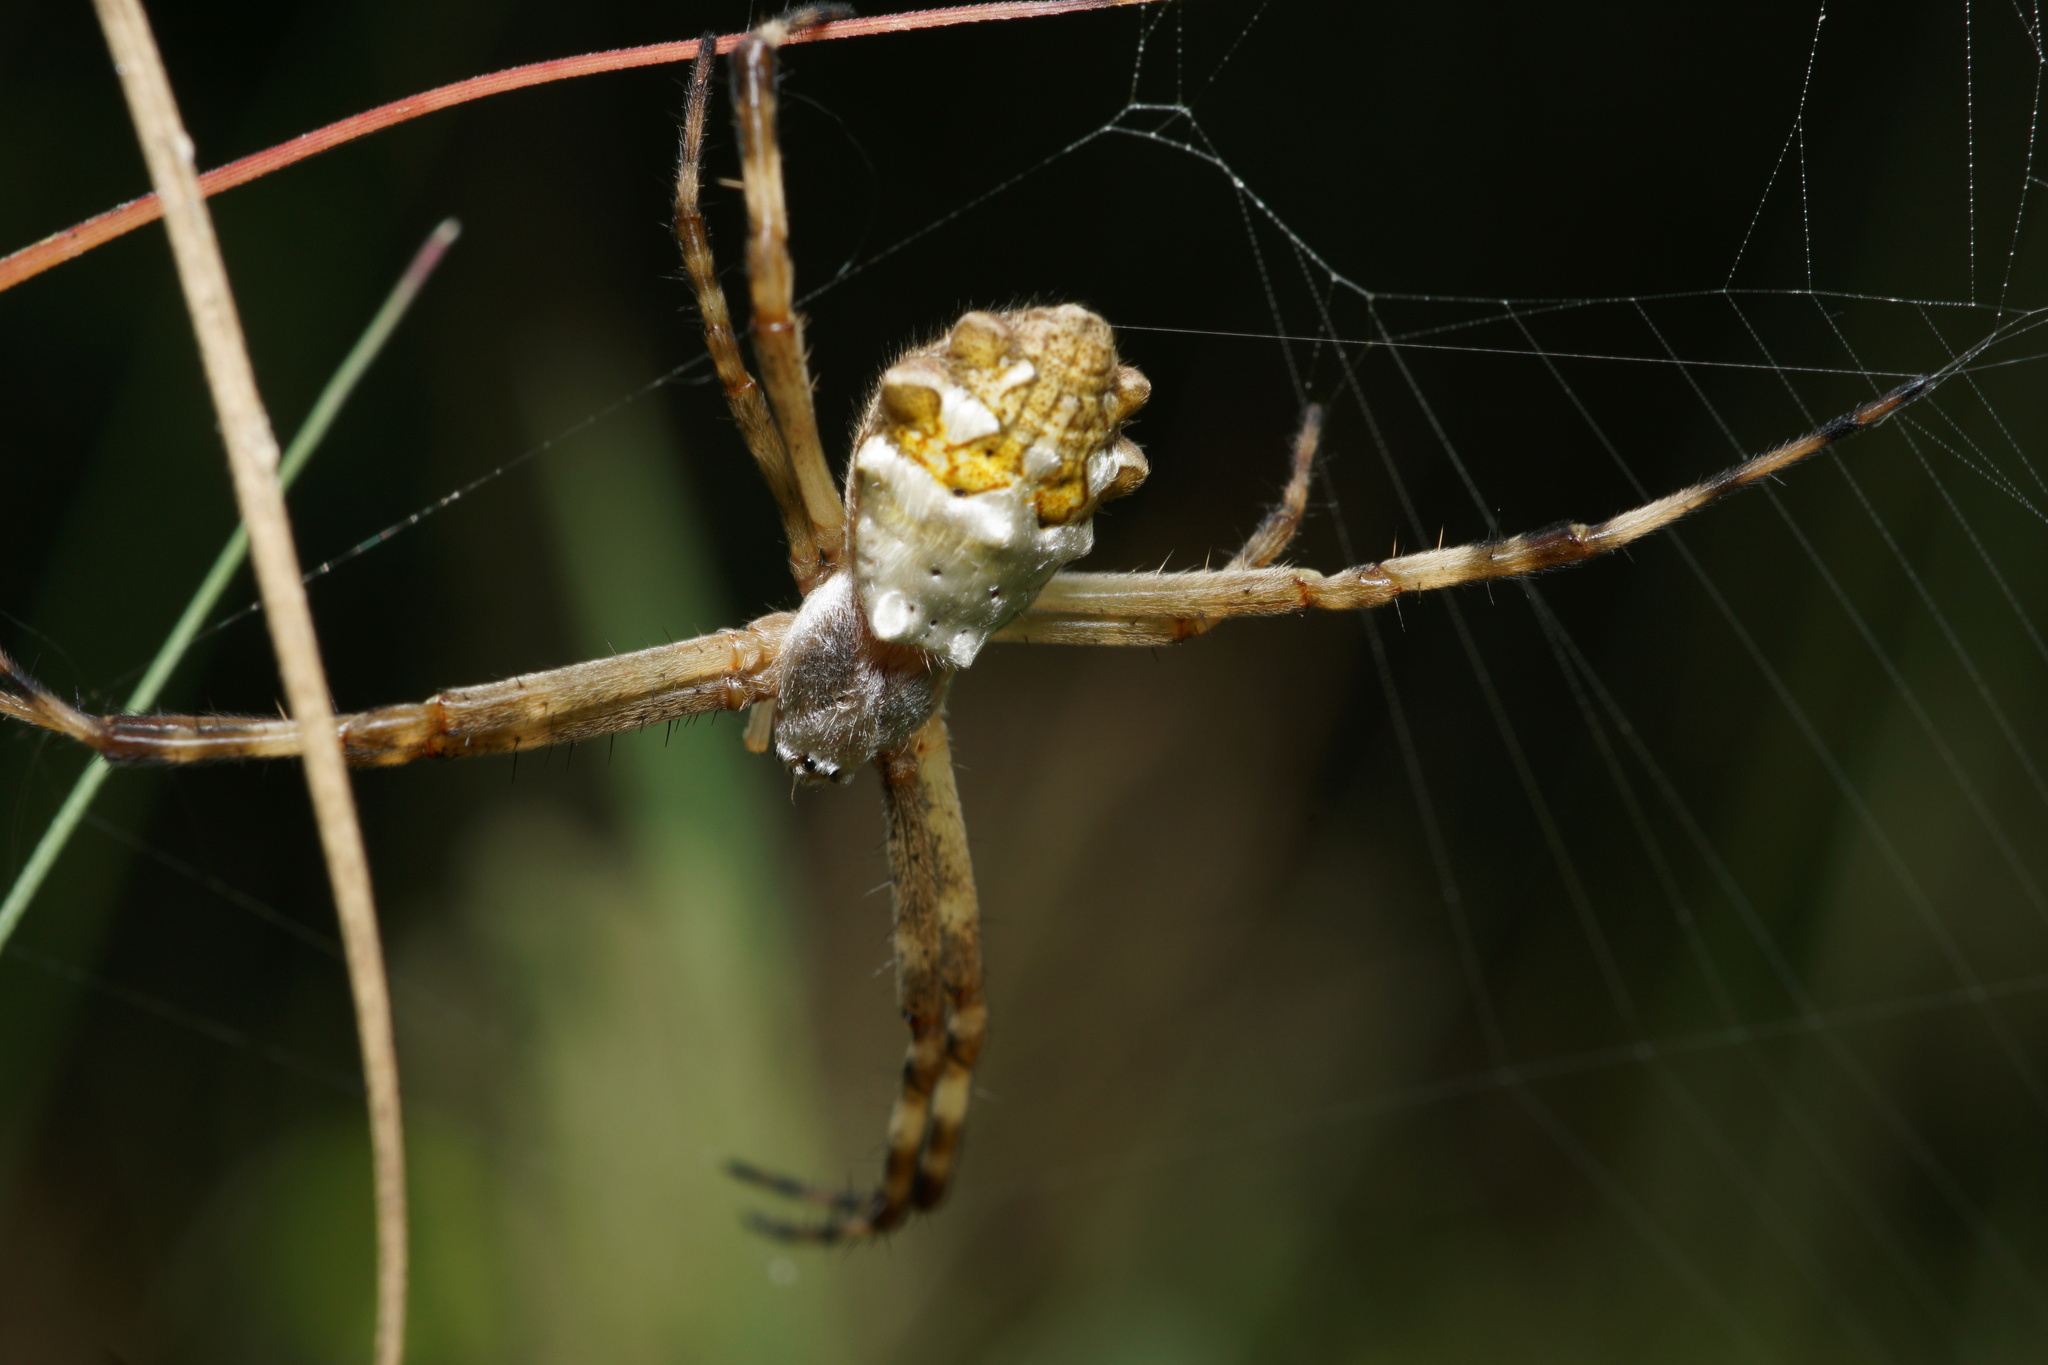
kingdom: Animalia
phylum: Arthropoda
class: Arachnida
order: Araneae
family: Araneidae
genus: Argiope
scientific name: Argiope argentata
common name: Orb weavers
